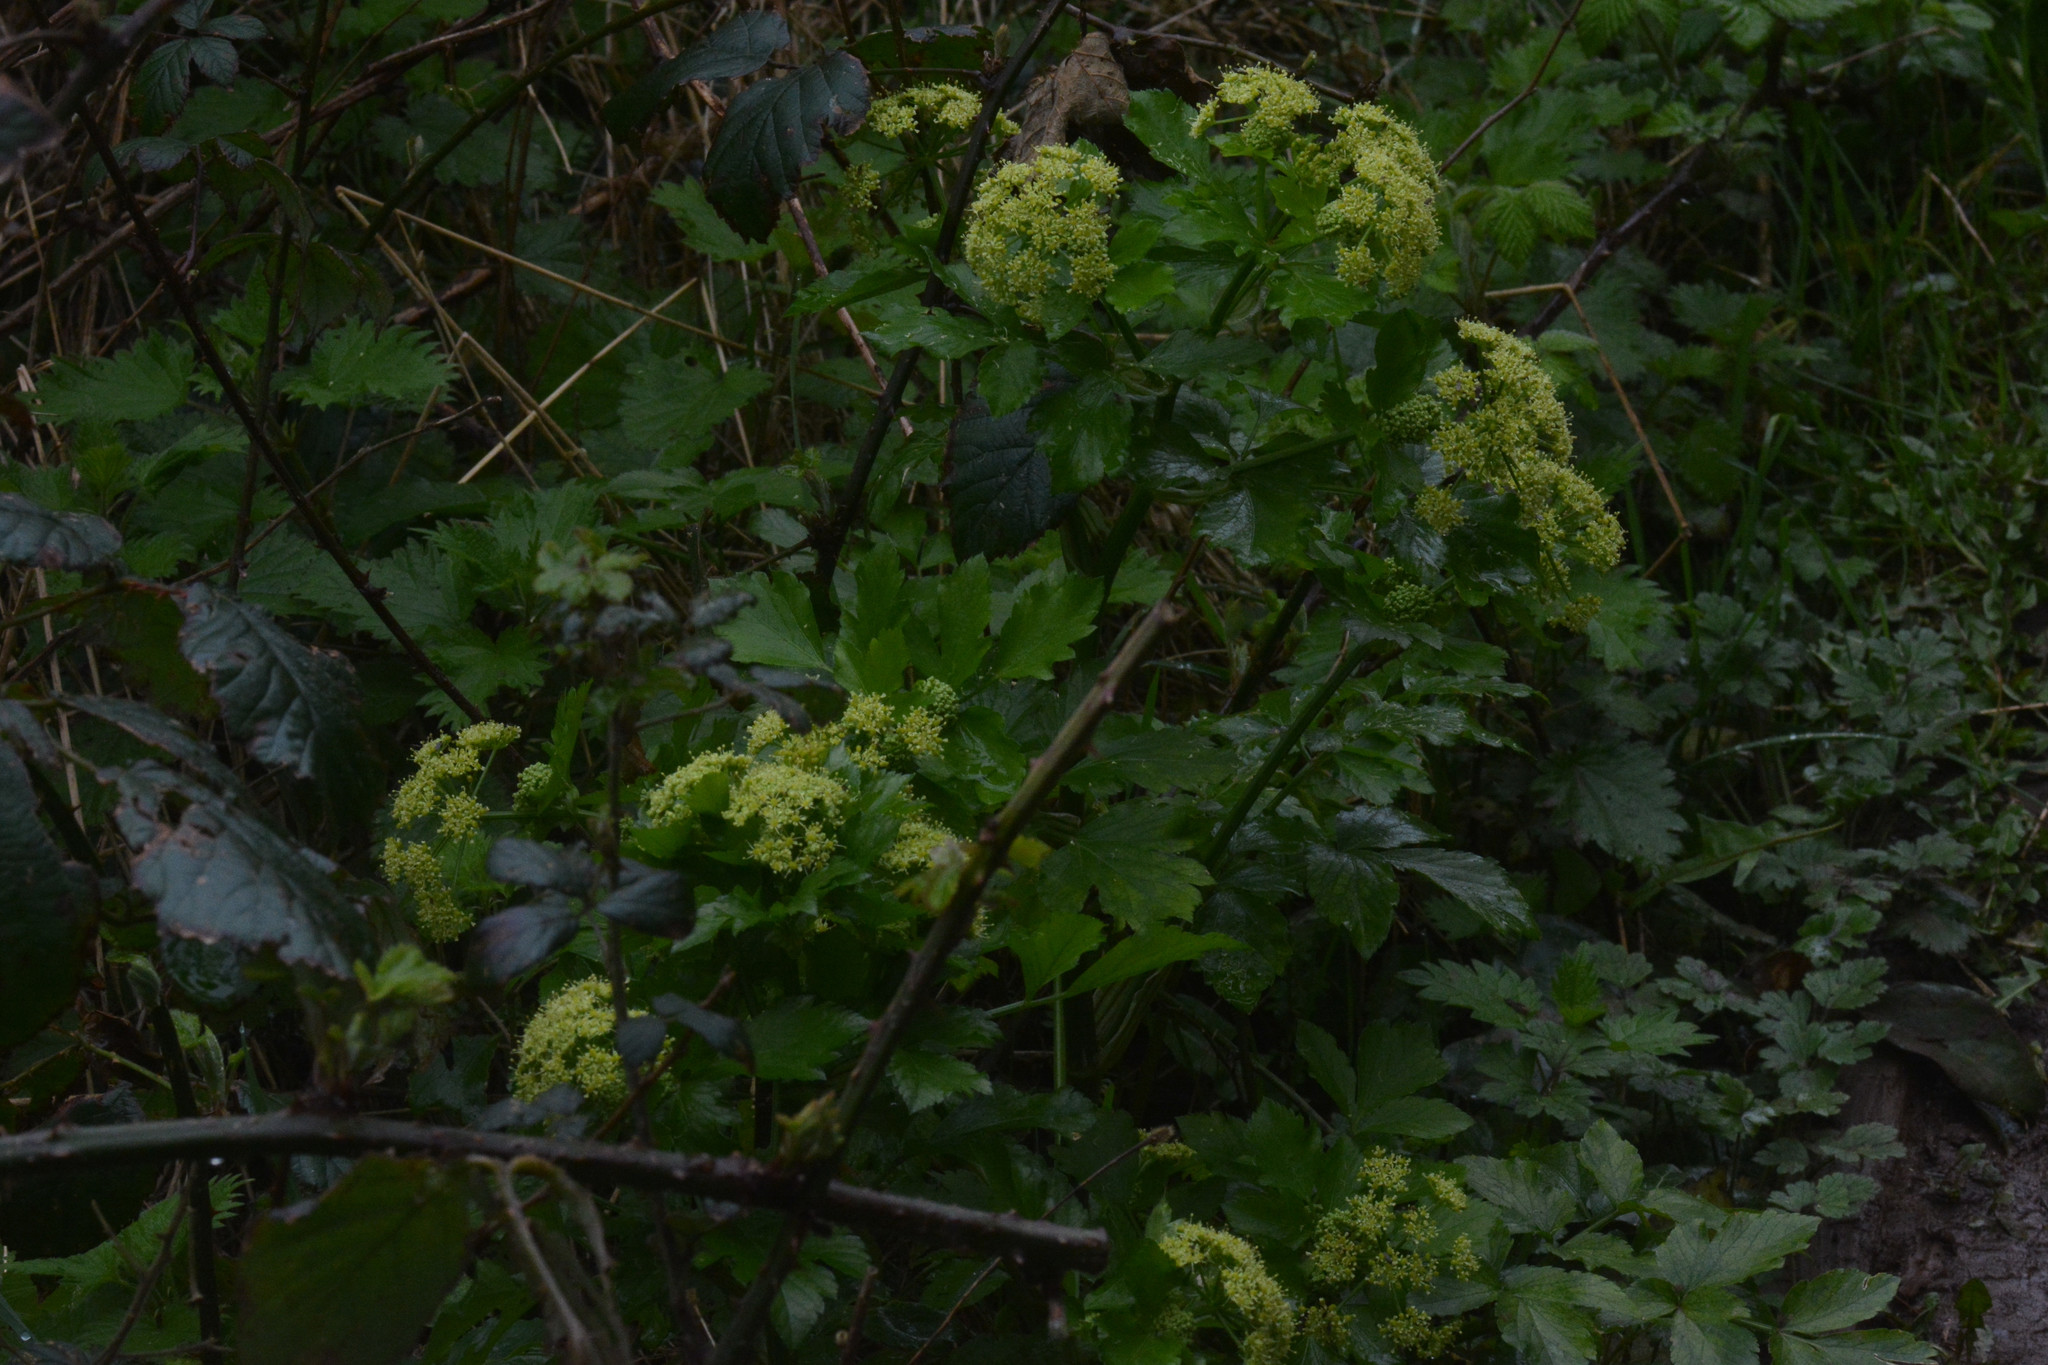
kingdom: Plantae
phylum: Tracheophyta
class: Magnoliopsida
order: Apiales
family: Apiaceae
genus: Smyrnium
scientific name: Smyrnium olusatrum
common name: Alexanders
